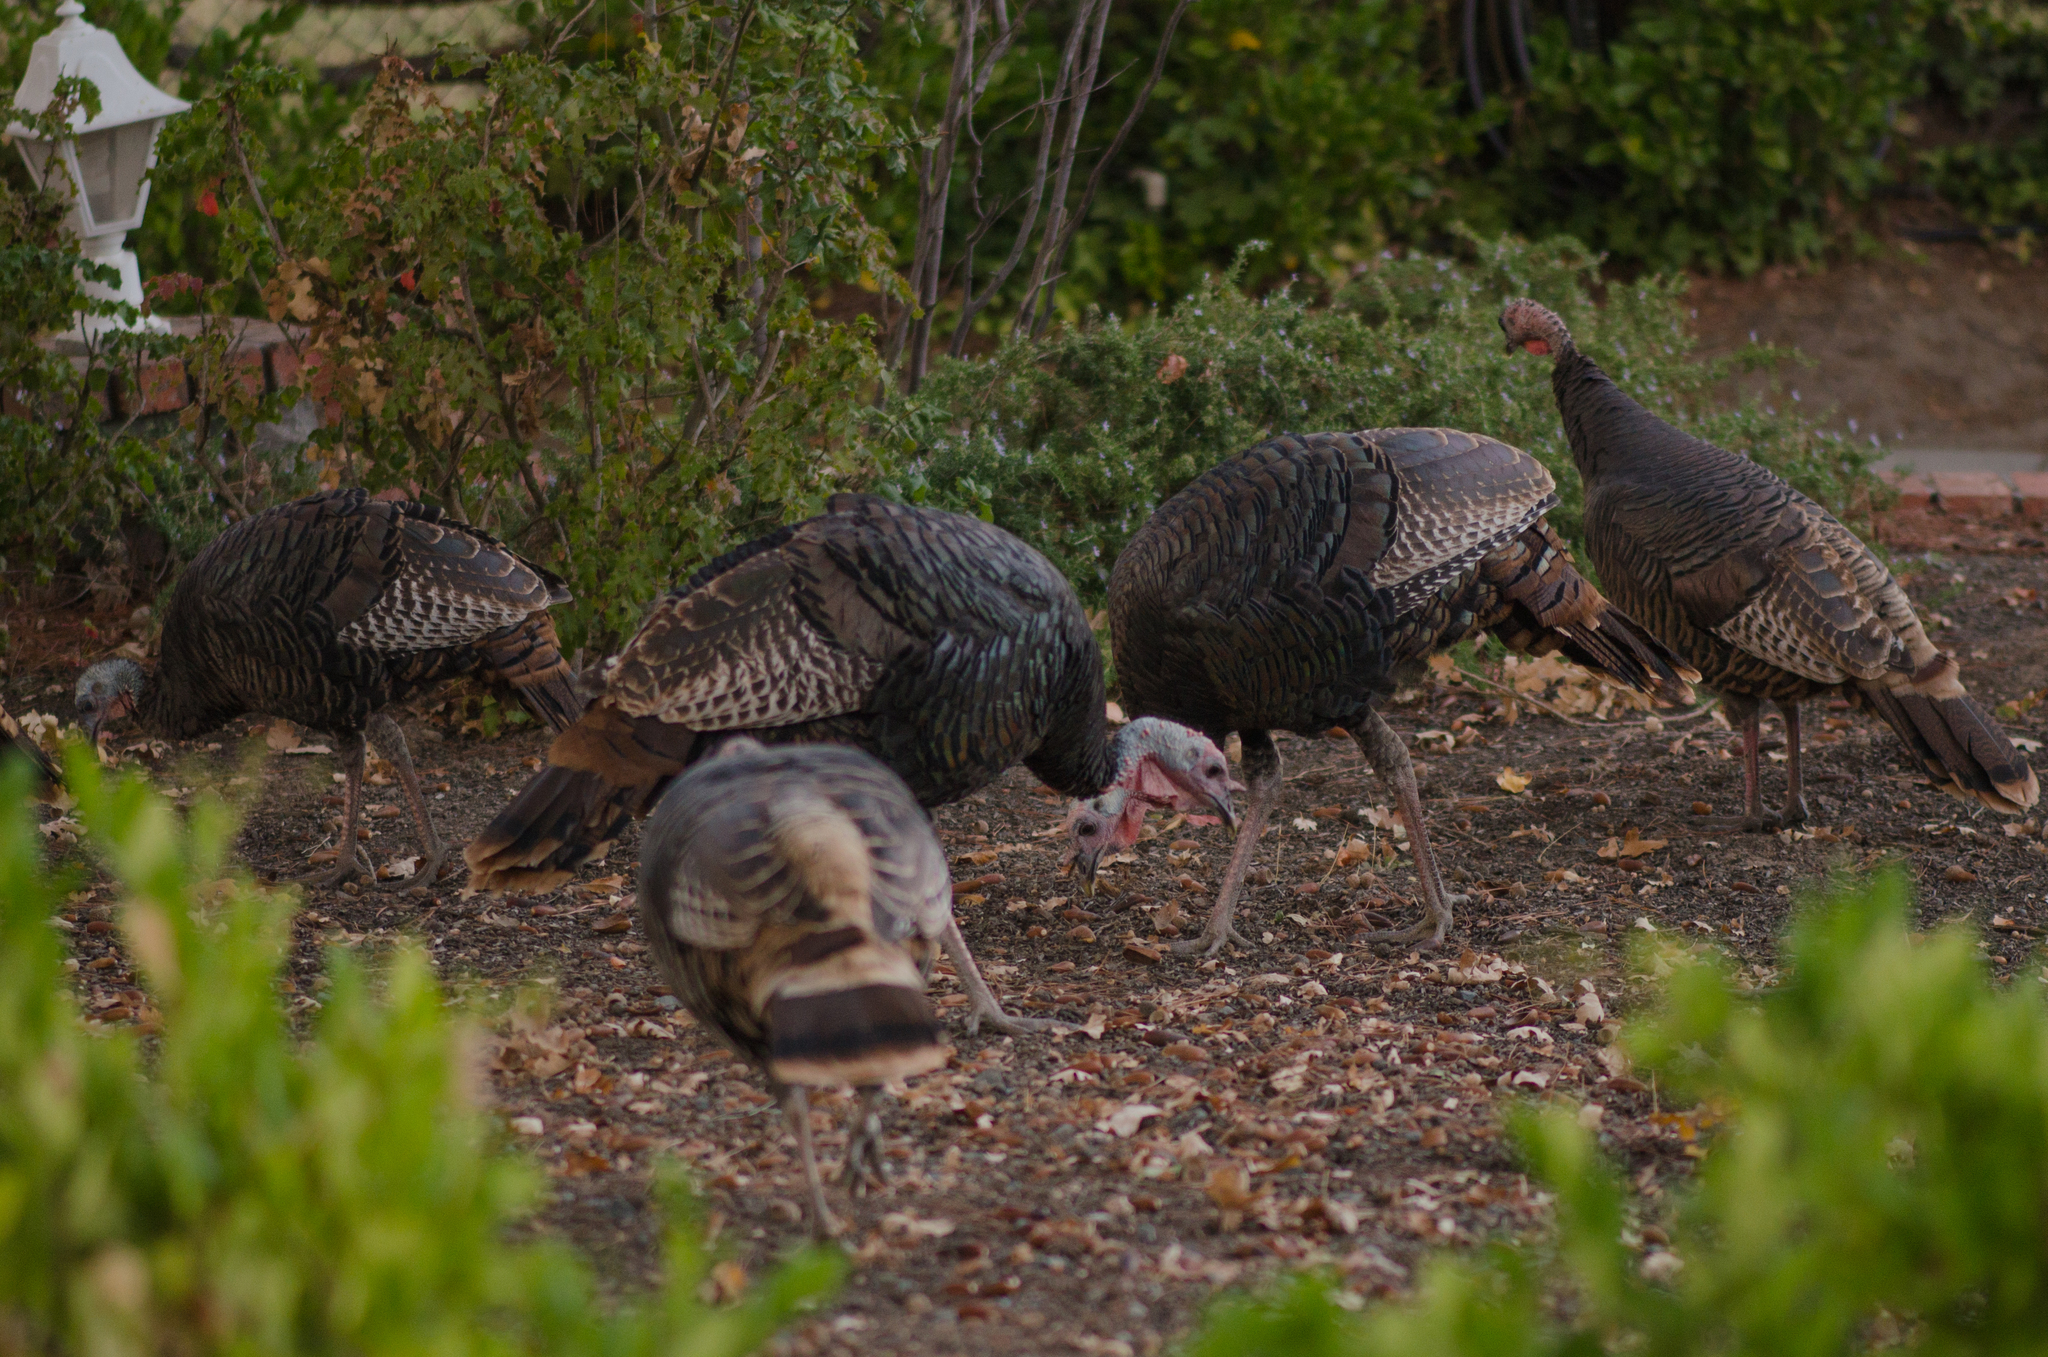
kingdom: Animalia
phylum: Chordata
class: Aves
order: Galliformes
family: Phasianidae
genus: Meleagris
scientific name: Meleagris gallopavo
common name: Wild turkey
